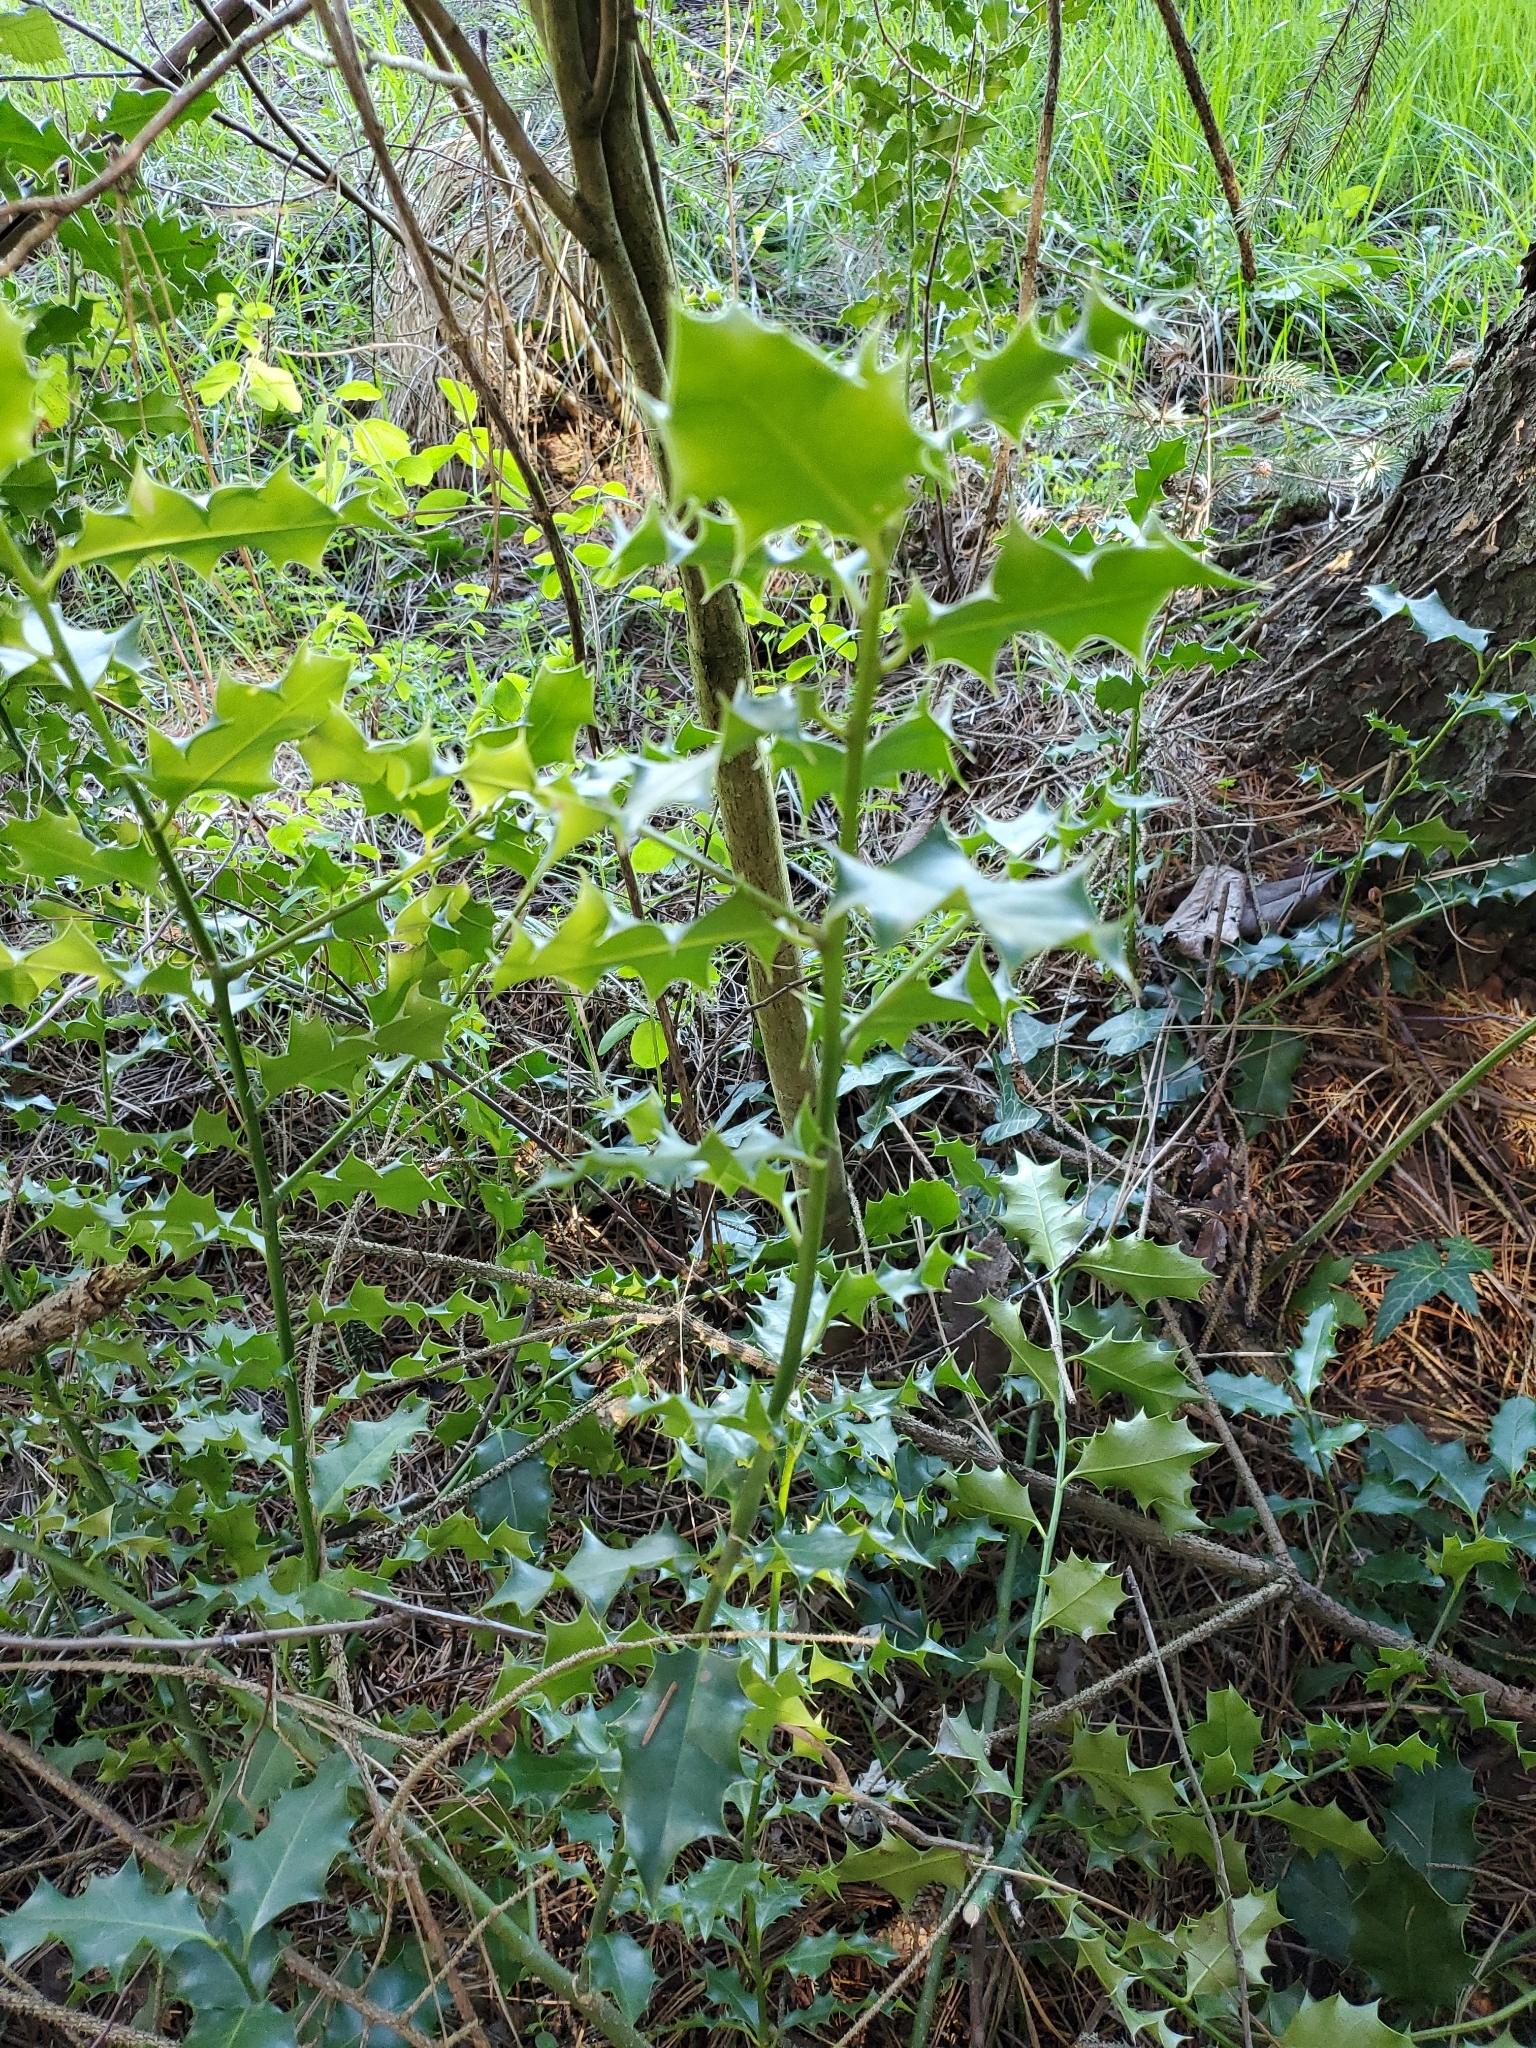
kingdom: Plantae
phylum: Tracheophyta
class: Magnoliopsida
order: Aquifoliales
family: Aquifoliaceae
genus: Ilex
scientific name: Ilex aquifolium
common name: English holly
